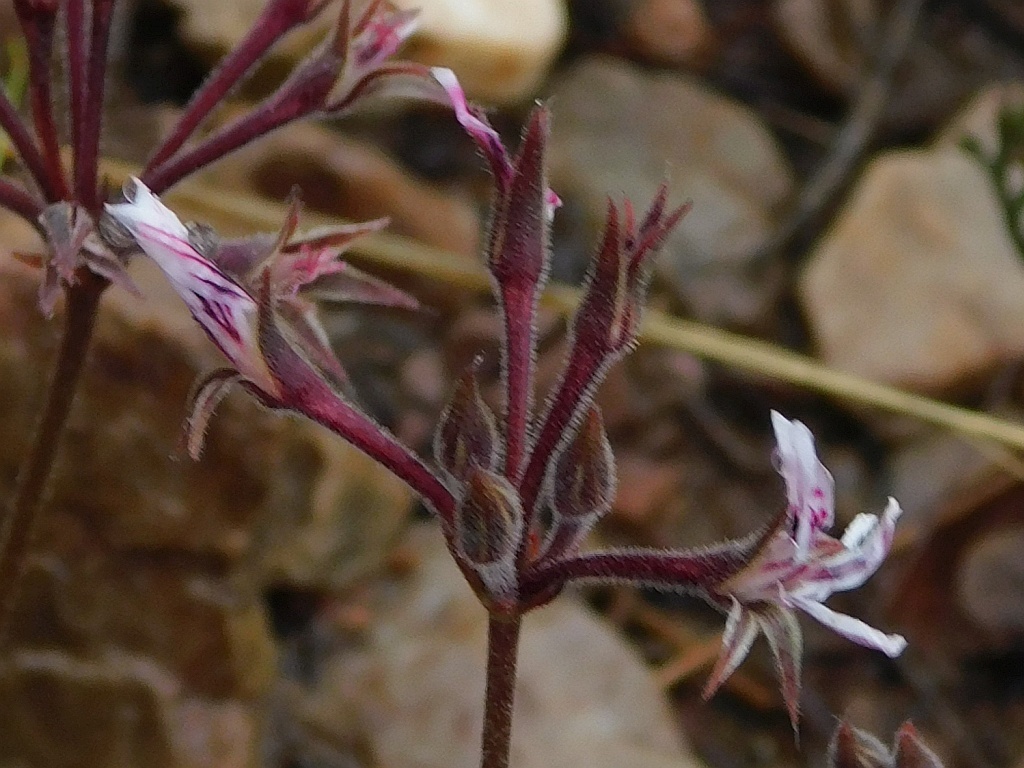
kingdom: Plantae
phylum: Tracheophyta
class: Magnoliopsida
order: Geraniales
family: Geraniaceae
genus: Pelargonium
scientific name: Pelargonium caledonicum
